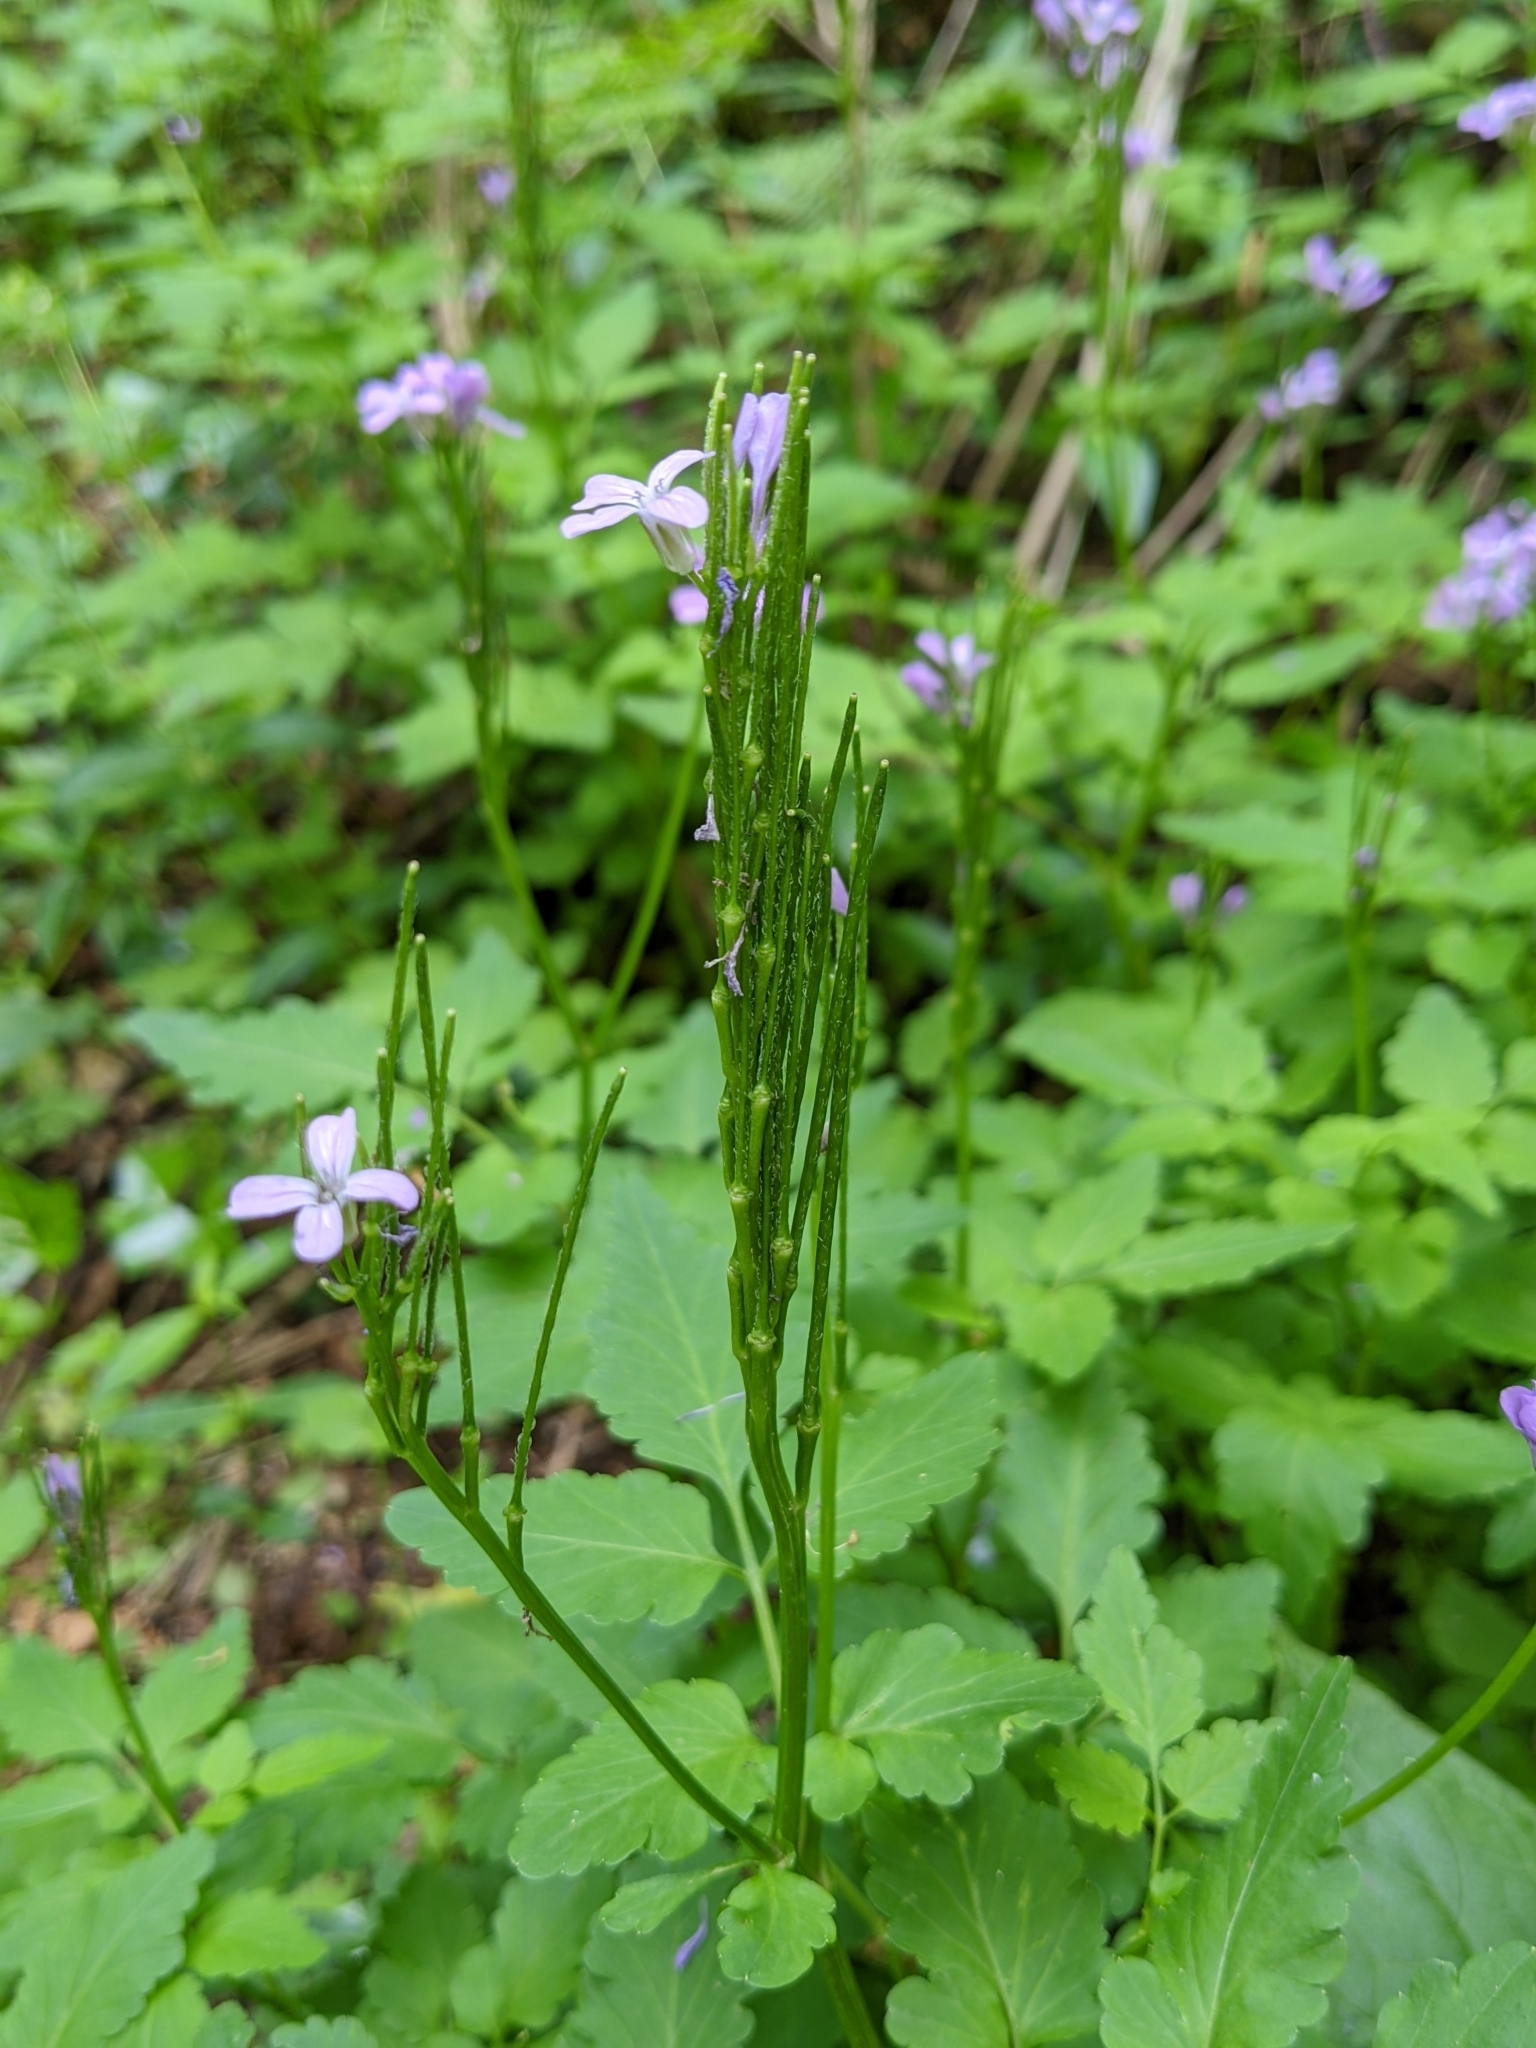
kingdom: Plantae
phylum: Tracheophyta
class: Magnoliopsida
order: Brassicales
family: Brassicaceae
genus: Cardamine
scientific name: Cardamine chelidonia
